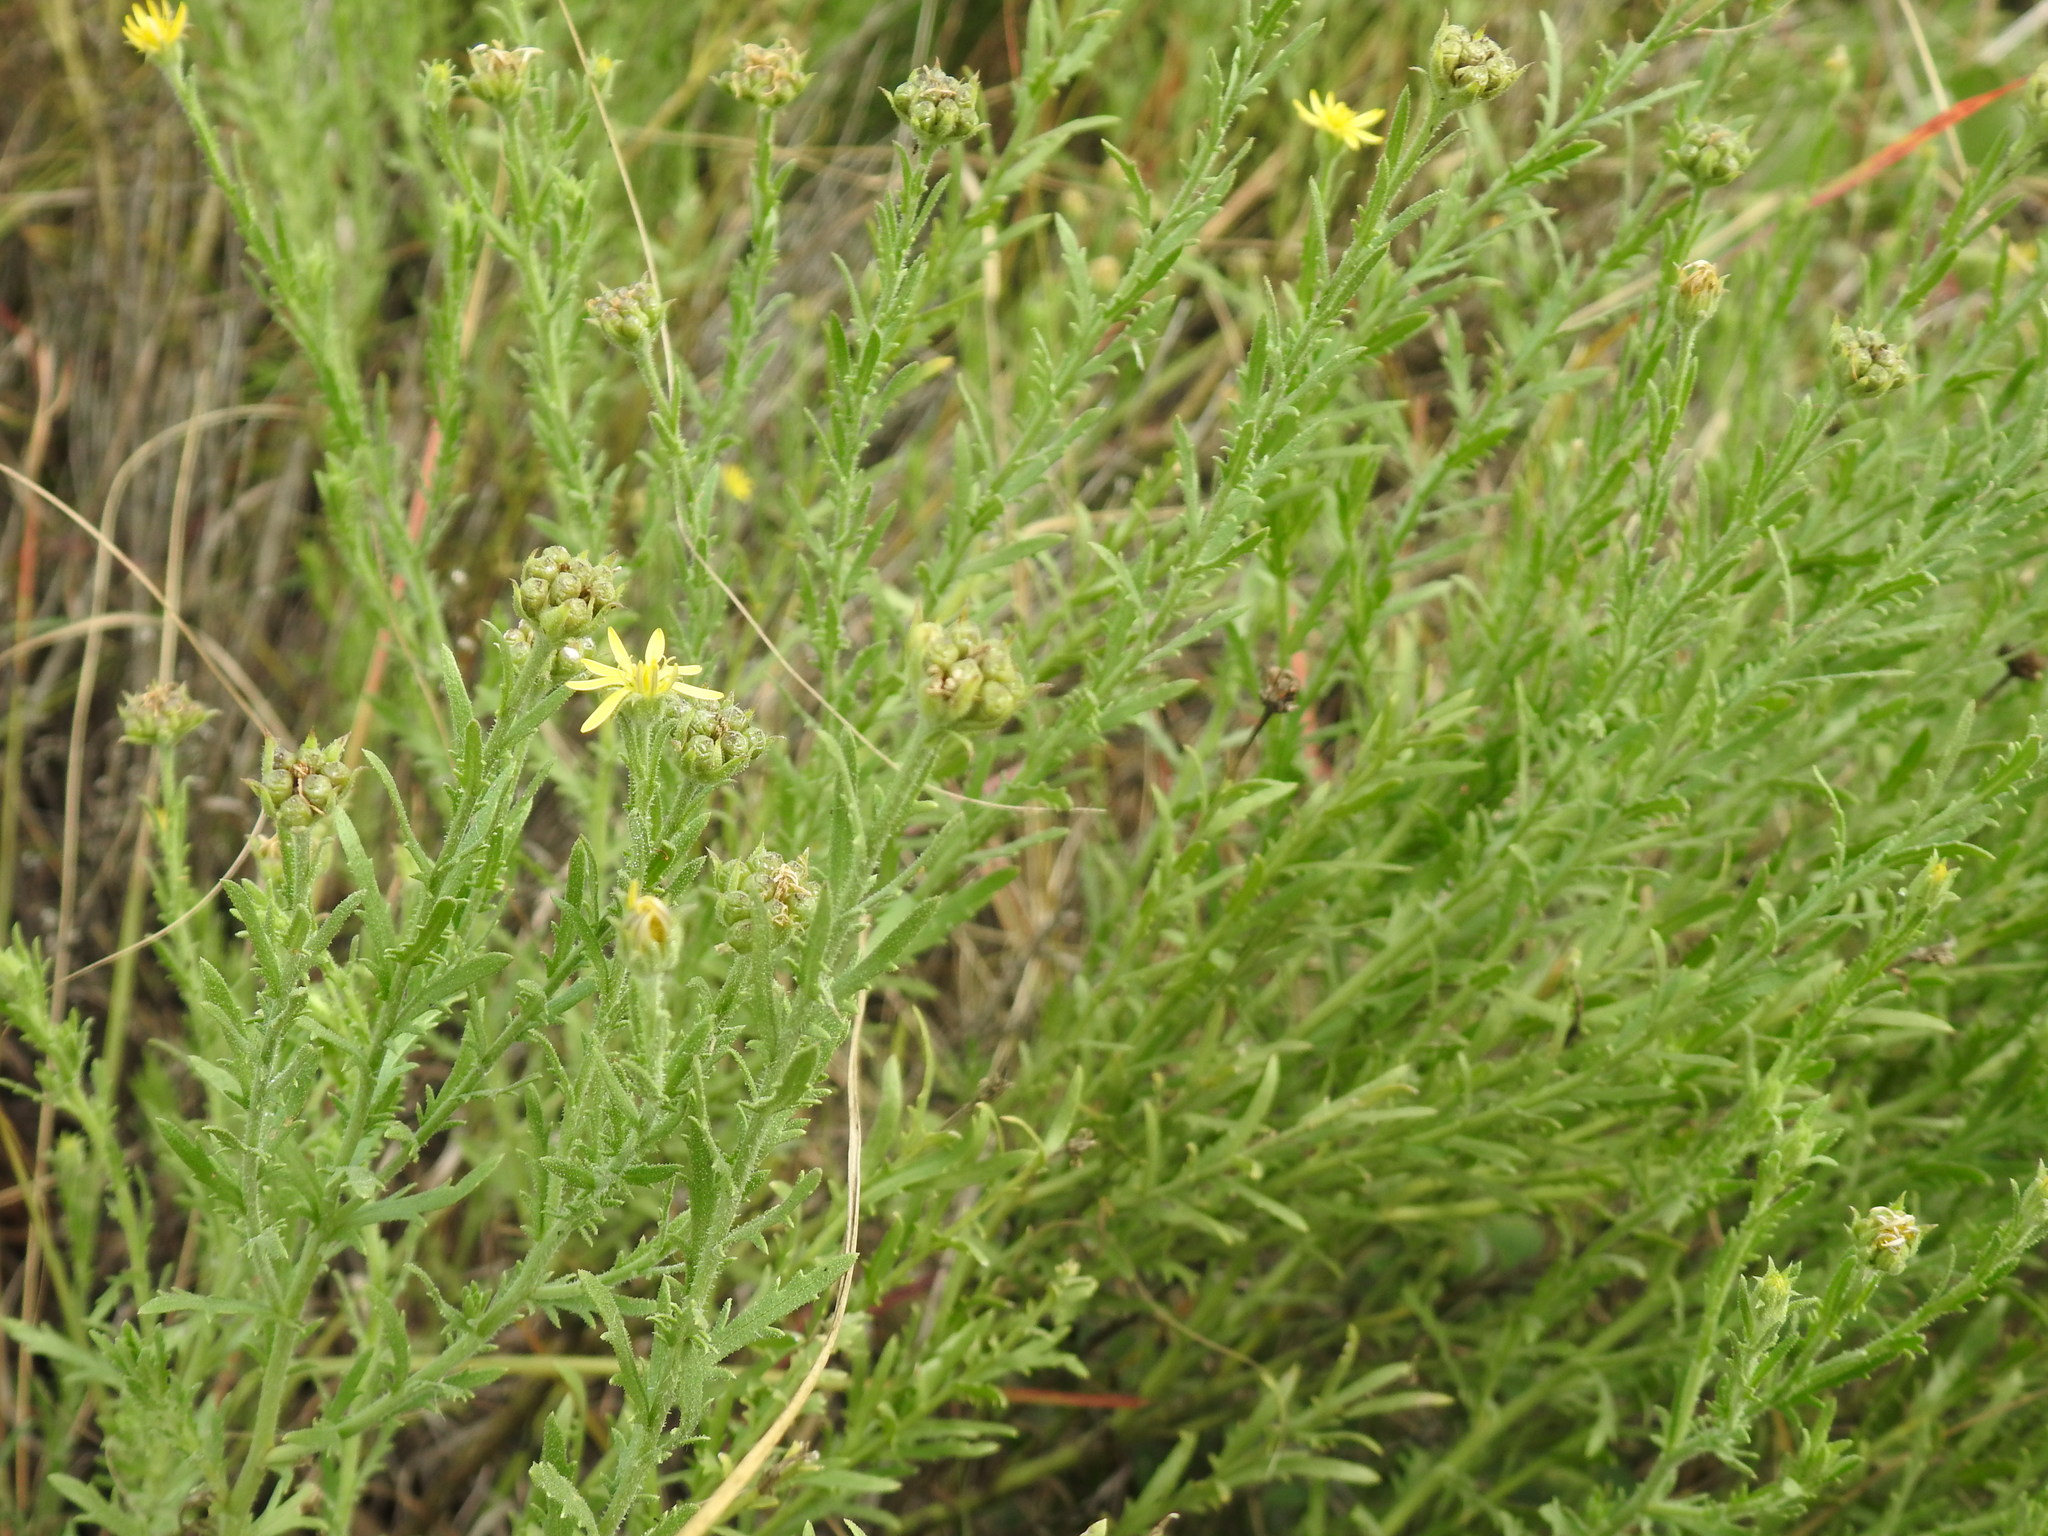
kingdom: Plantae
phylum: Tracheophyta
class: Magnoliopsida
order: Asterales
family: Asteraceae
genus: Osteospermum
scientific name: Osteospermum muricatum
